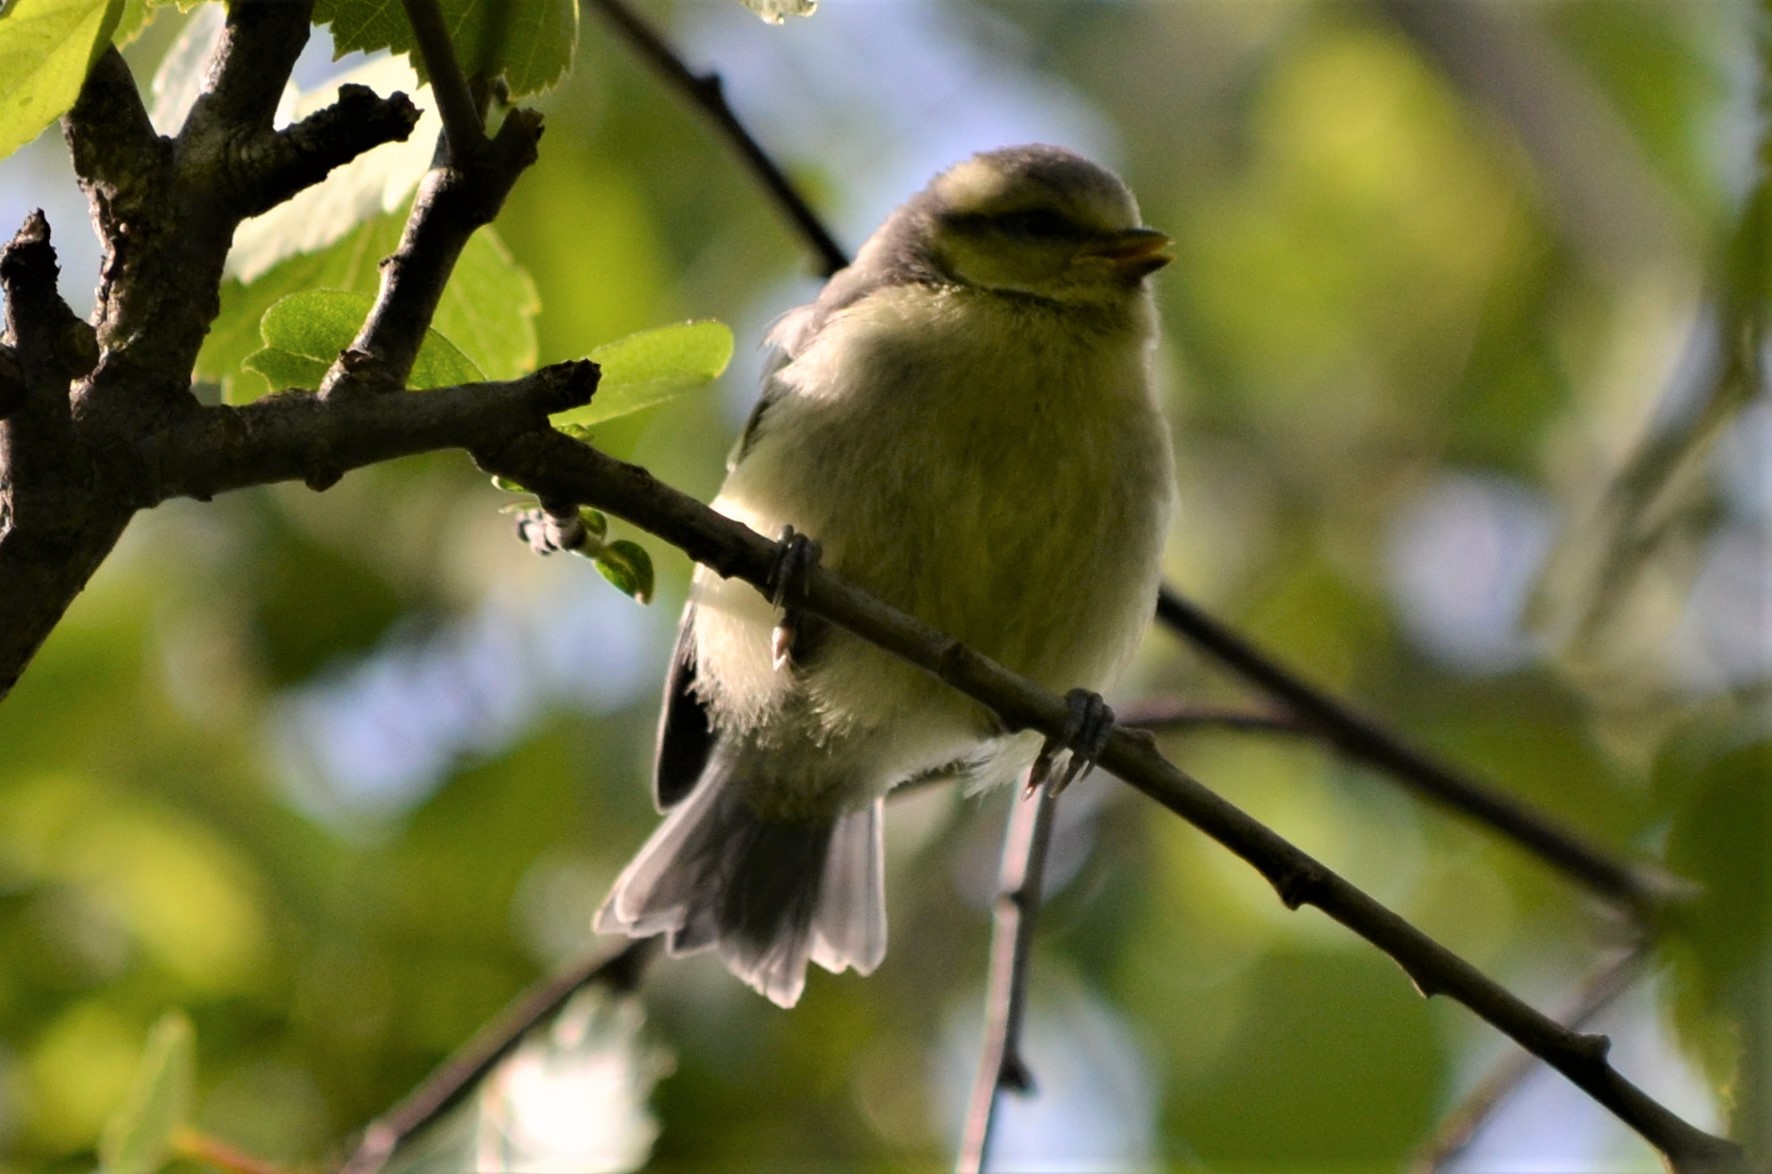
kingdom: Animalia
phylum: Chordata
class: Aves
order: Passeriformes
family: Paridae
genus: Cyanistes
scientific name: Cyanistes caeruleus
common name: Eurasian blue tit
